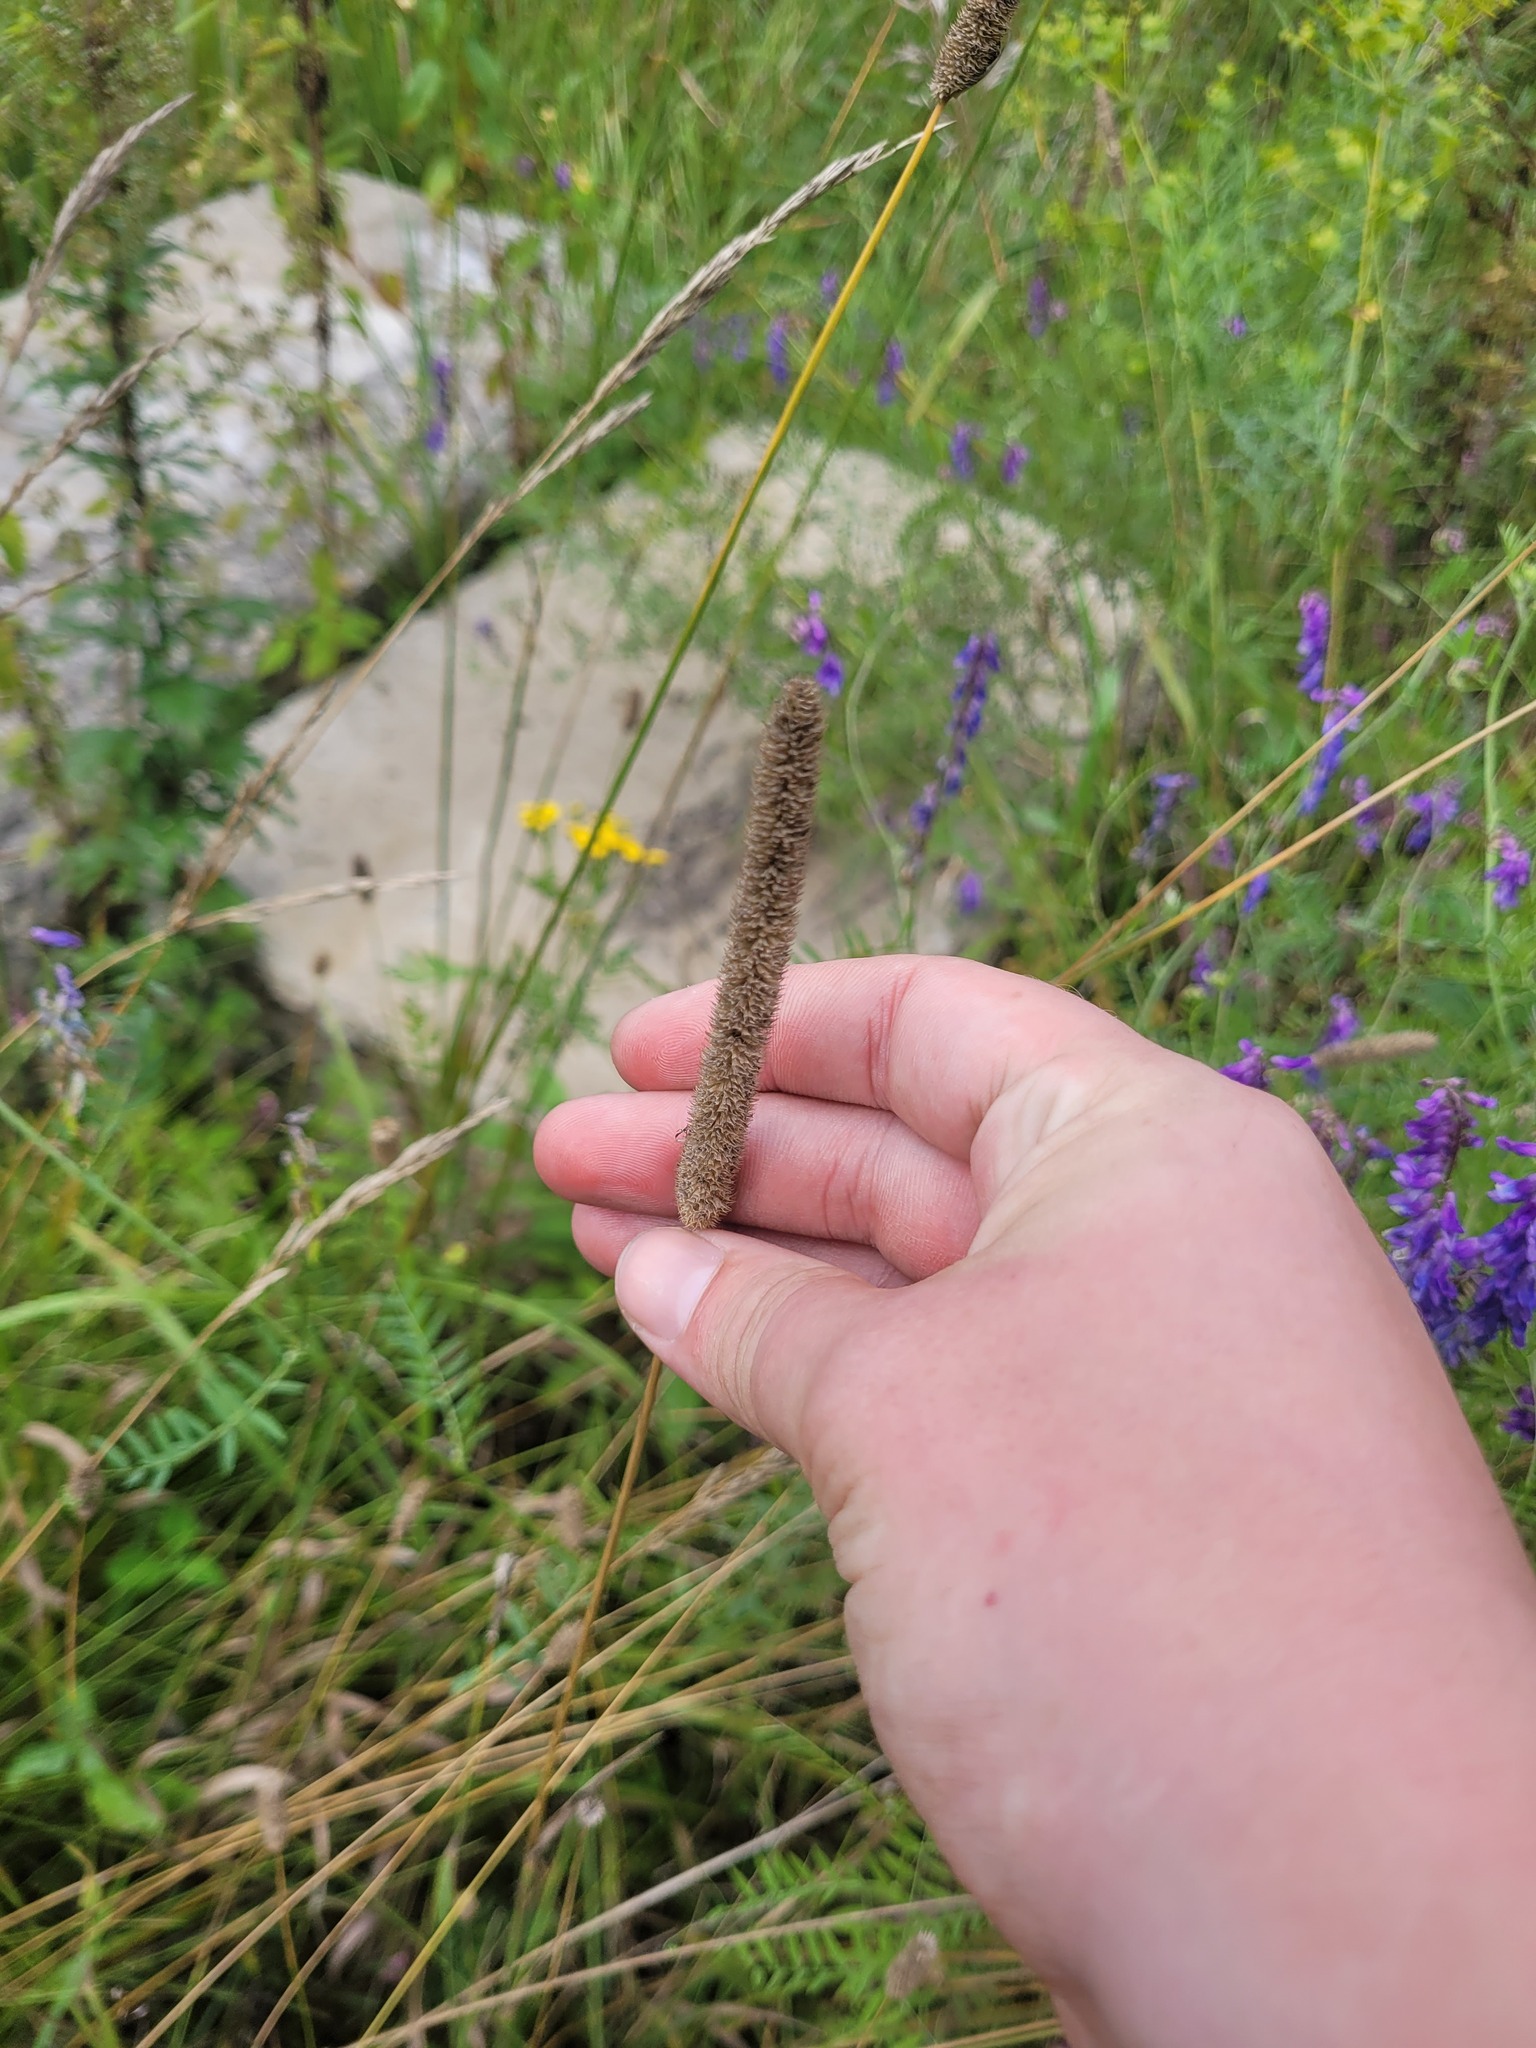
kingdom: Plantae
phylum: Tracheophyta
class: Liliopsida
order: Poales
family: Poaceae
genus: Phleum
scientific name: Phleum pratense
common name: Timothy grass
